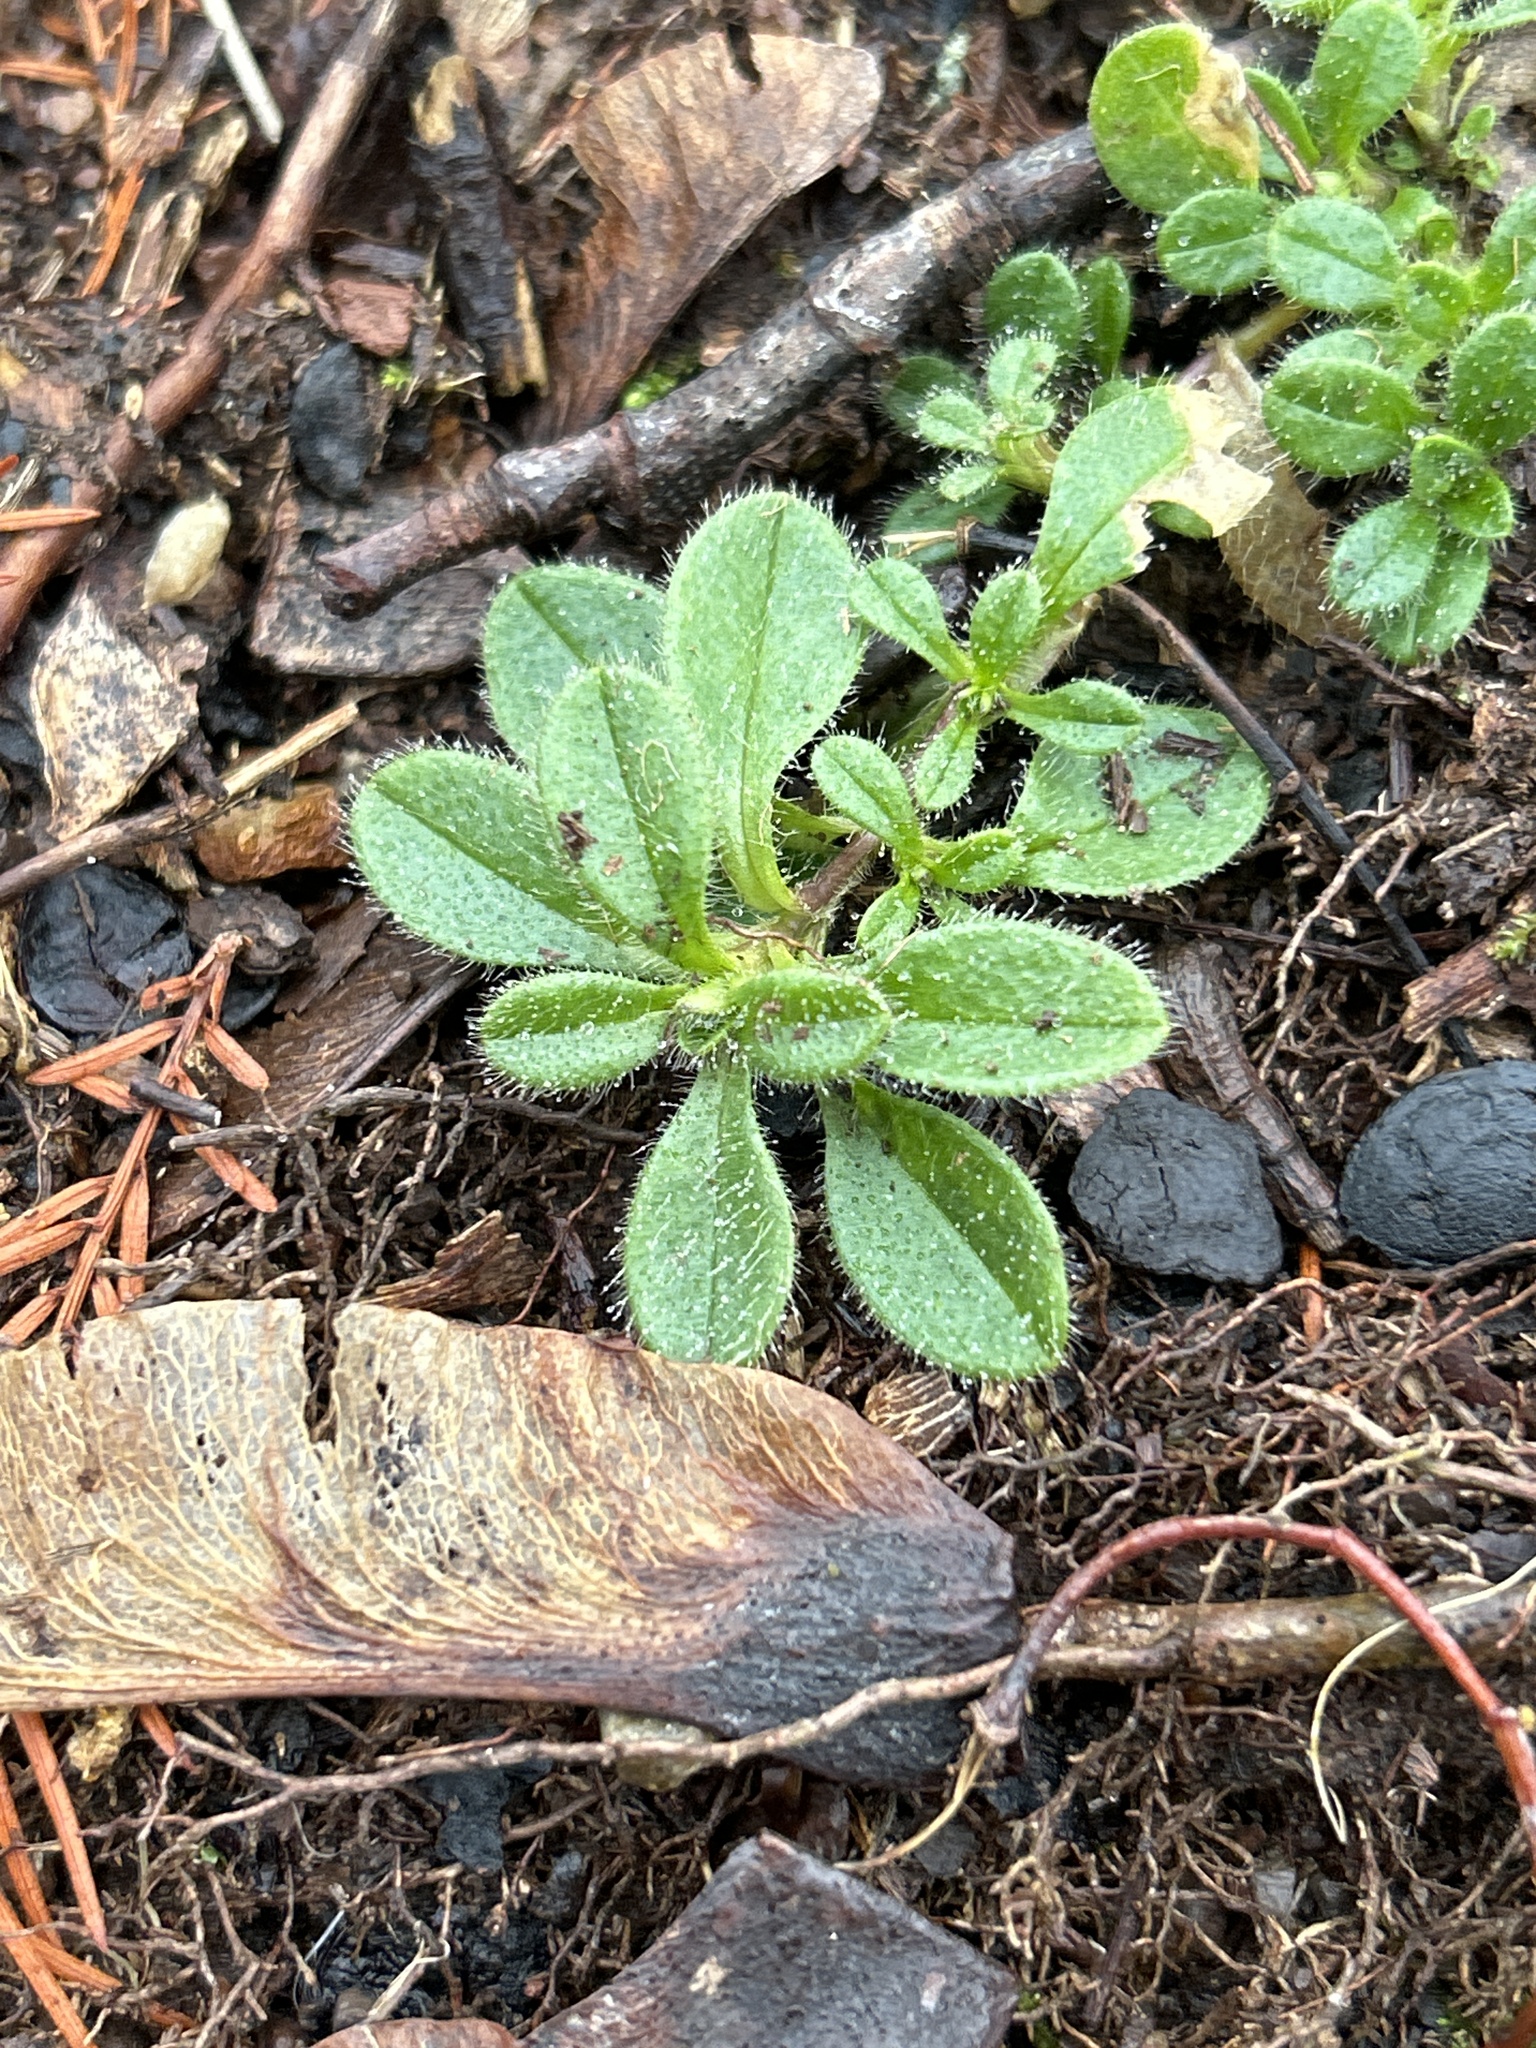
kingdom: Plantae
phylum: Tracheophyta
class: Magnoliopsida
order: Caryophyllales
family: Caryophyllaceae
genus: Cerastium
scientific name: Cerastium fontanum
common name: Common mouse-ear
